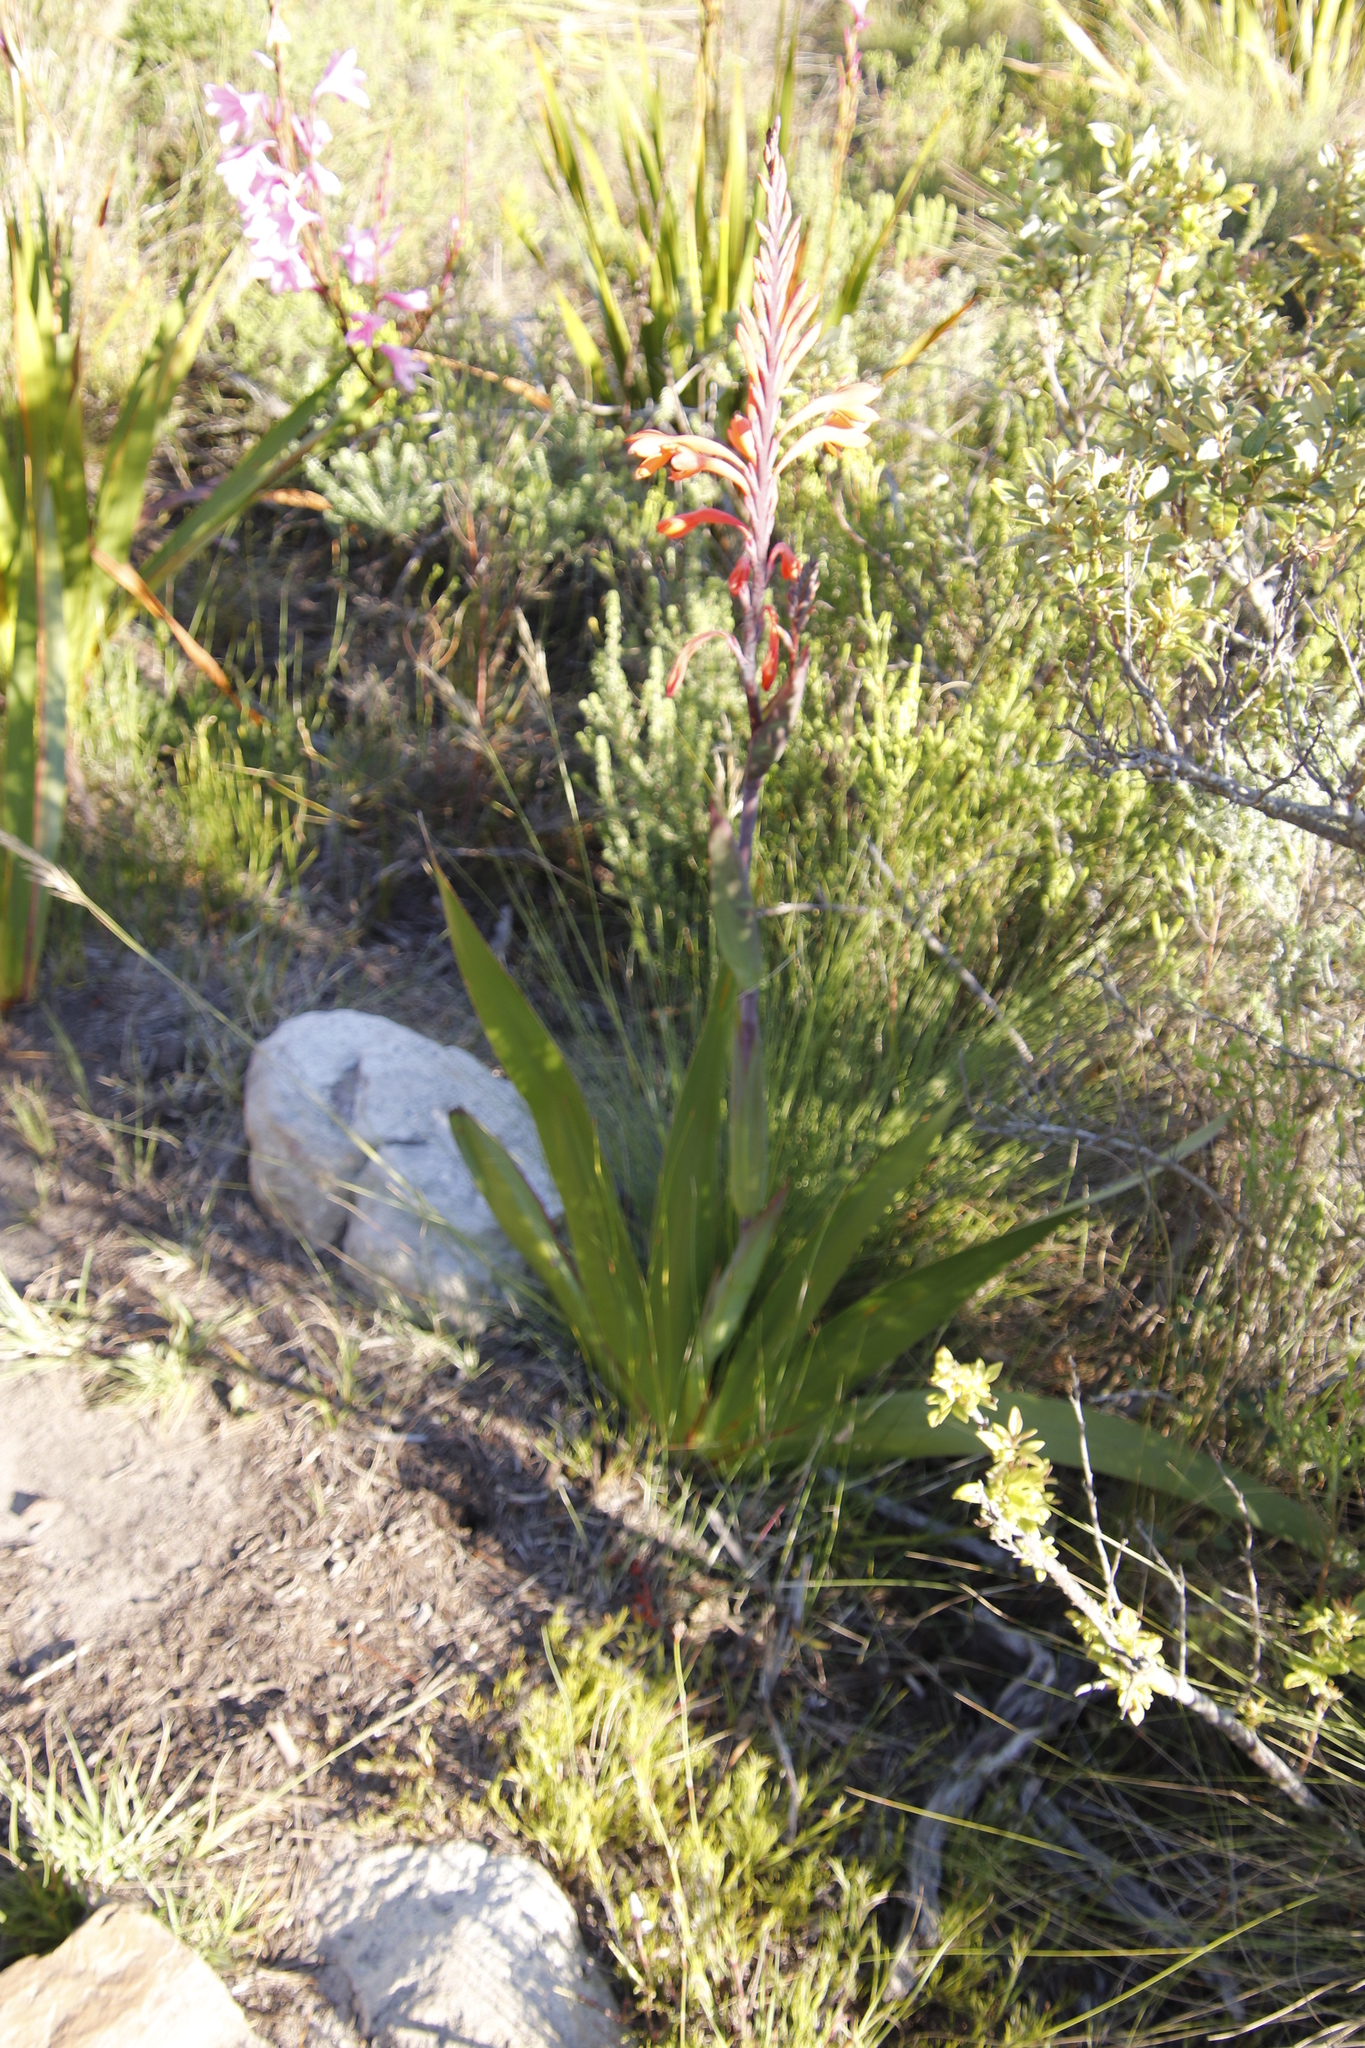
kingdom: Plantae
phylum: Tracheophyta
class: Liliopsida
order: Asparagales
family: Iridaceae
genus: Watsonia
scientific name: Watsonia tabularis
